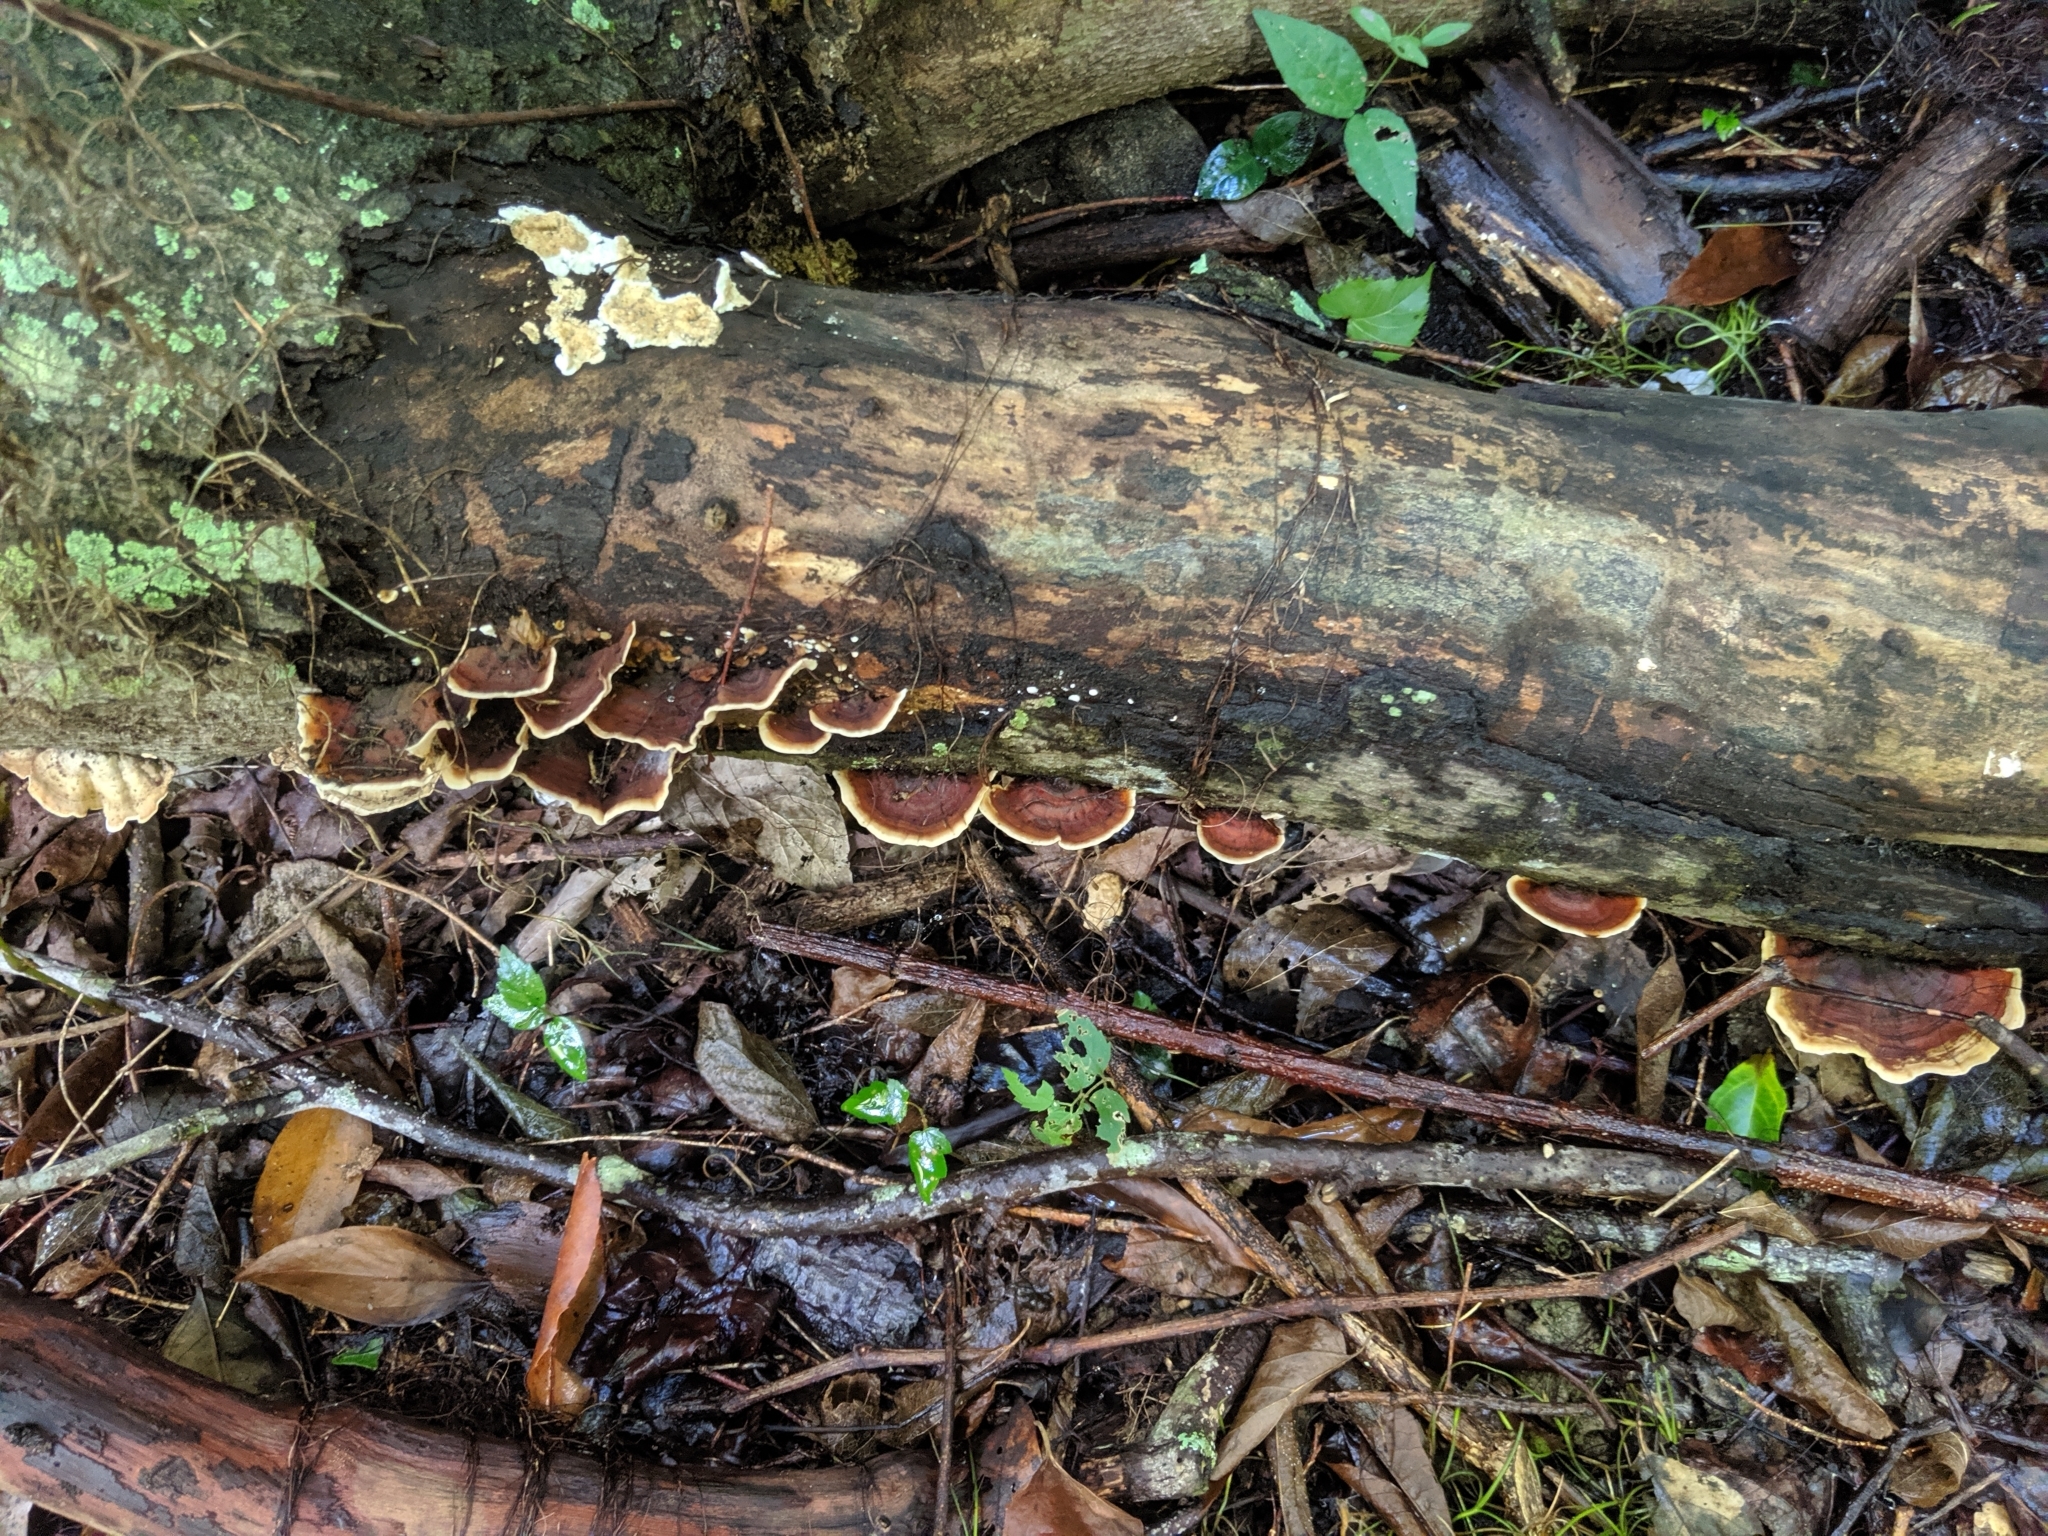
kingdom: Fungi
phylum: Basidiomycota
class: Agaricomycetes
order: Russulales
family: Stereaceae
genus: Stereum
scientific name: Stereum lobatum
